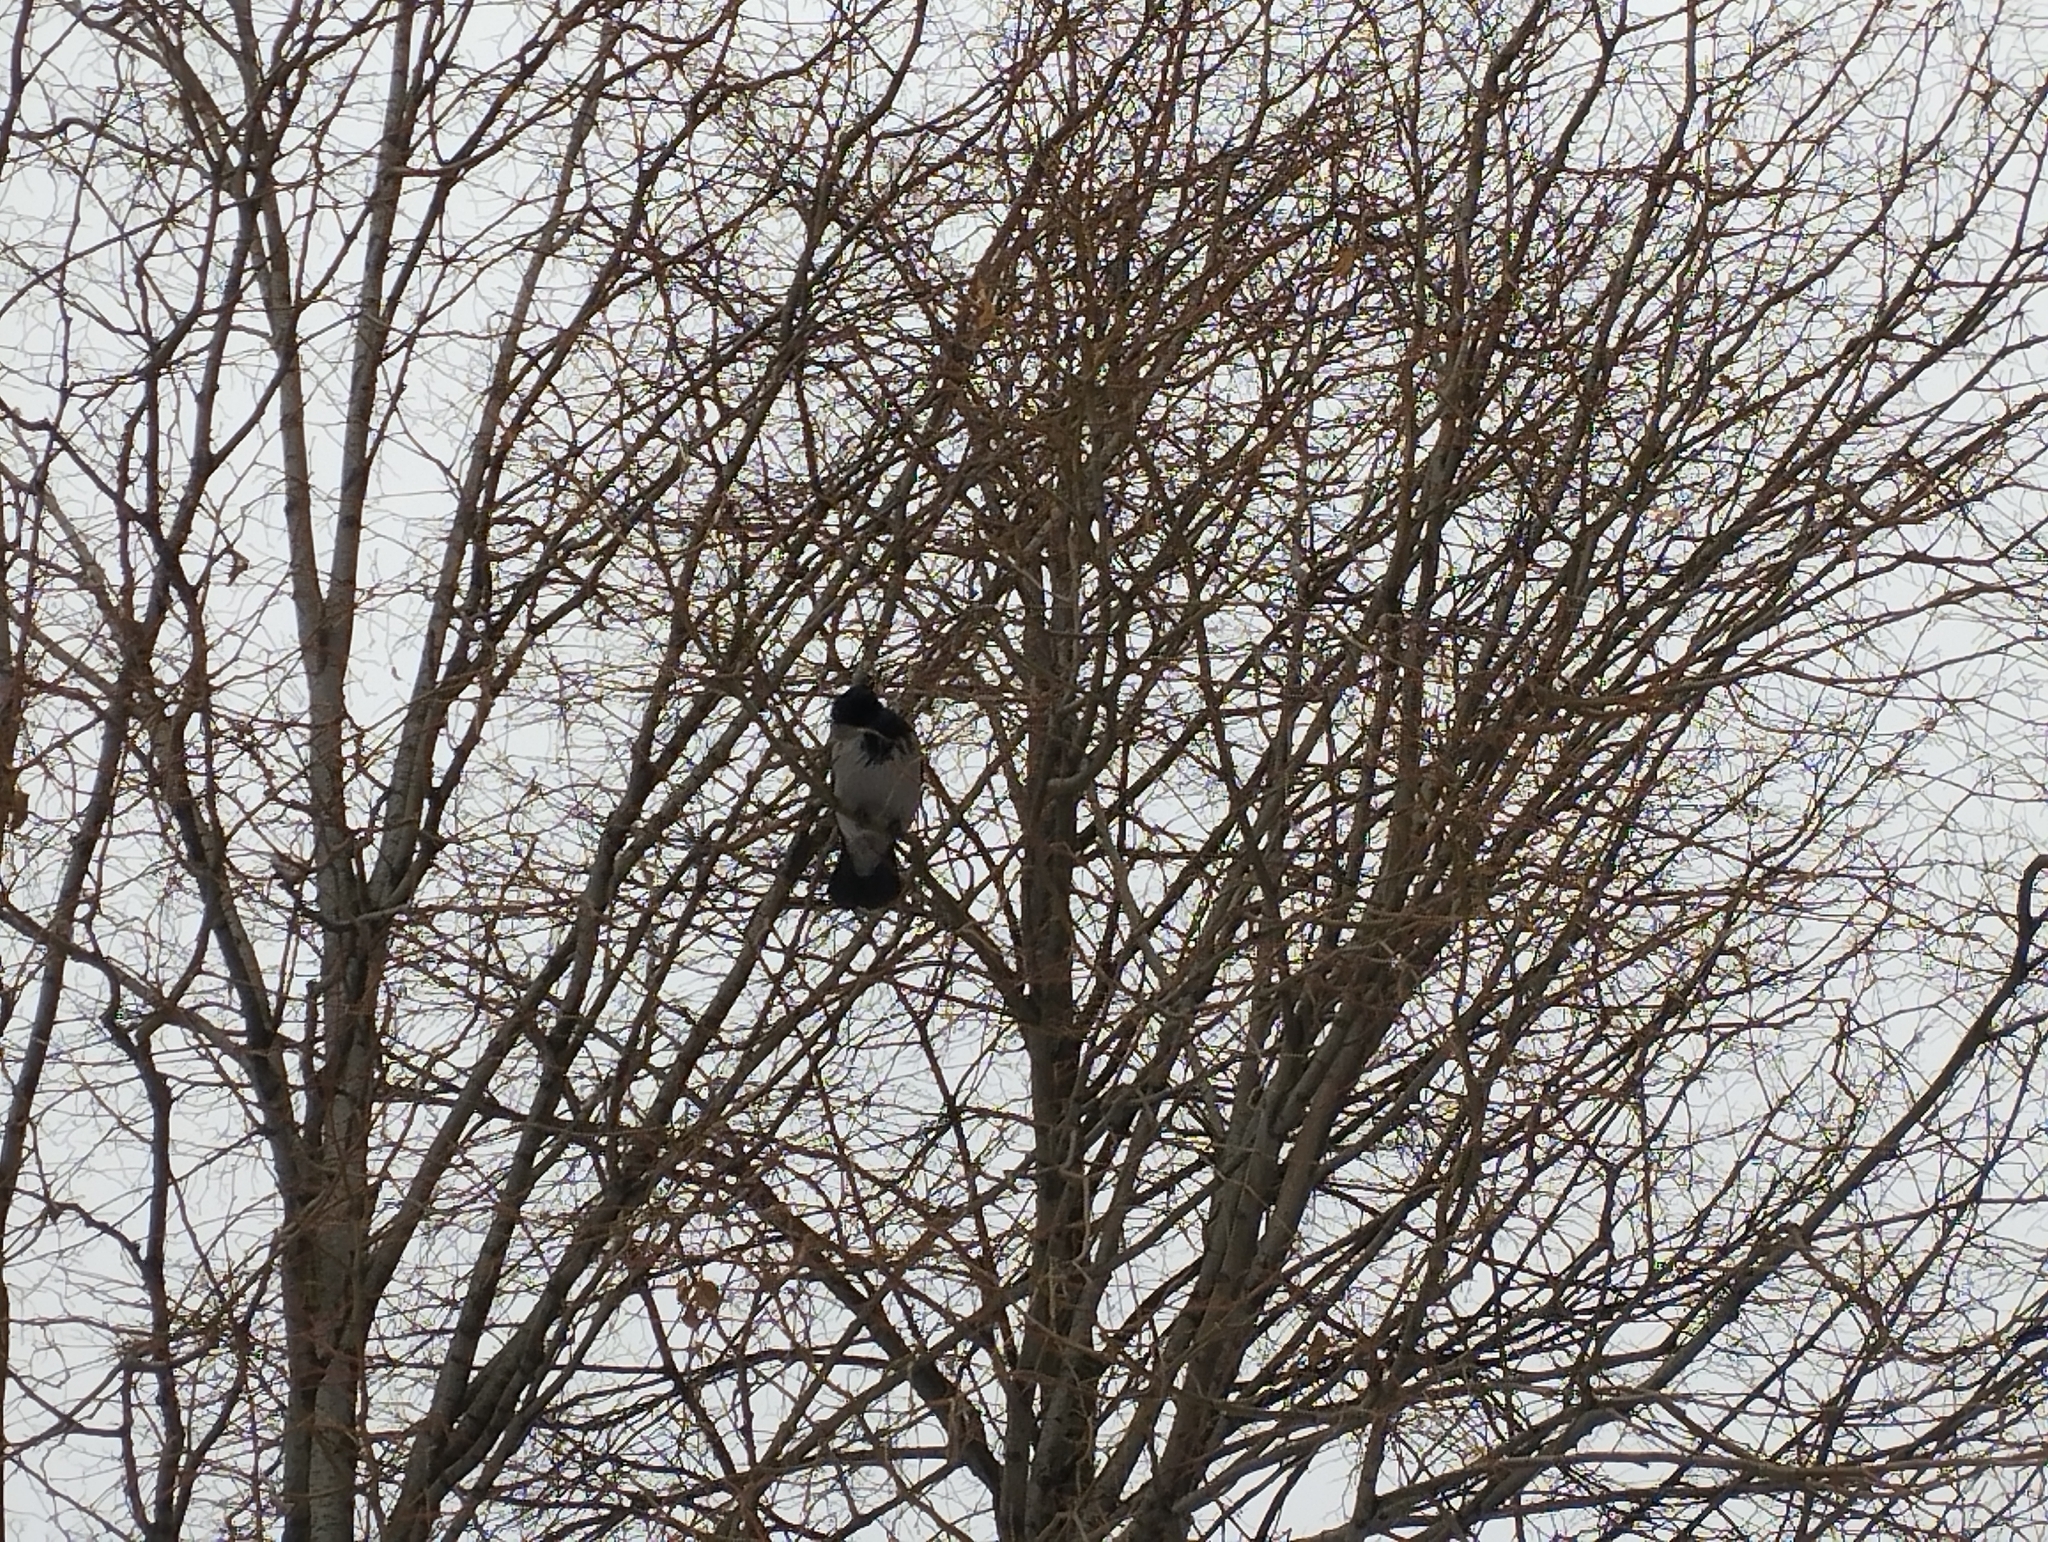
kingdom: Animalia
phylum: Chordata
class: Aves
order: Passeriformes
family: Corvidae
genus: Corvus
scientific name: Corvus cornix
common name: Hooded crow
